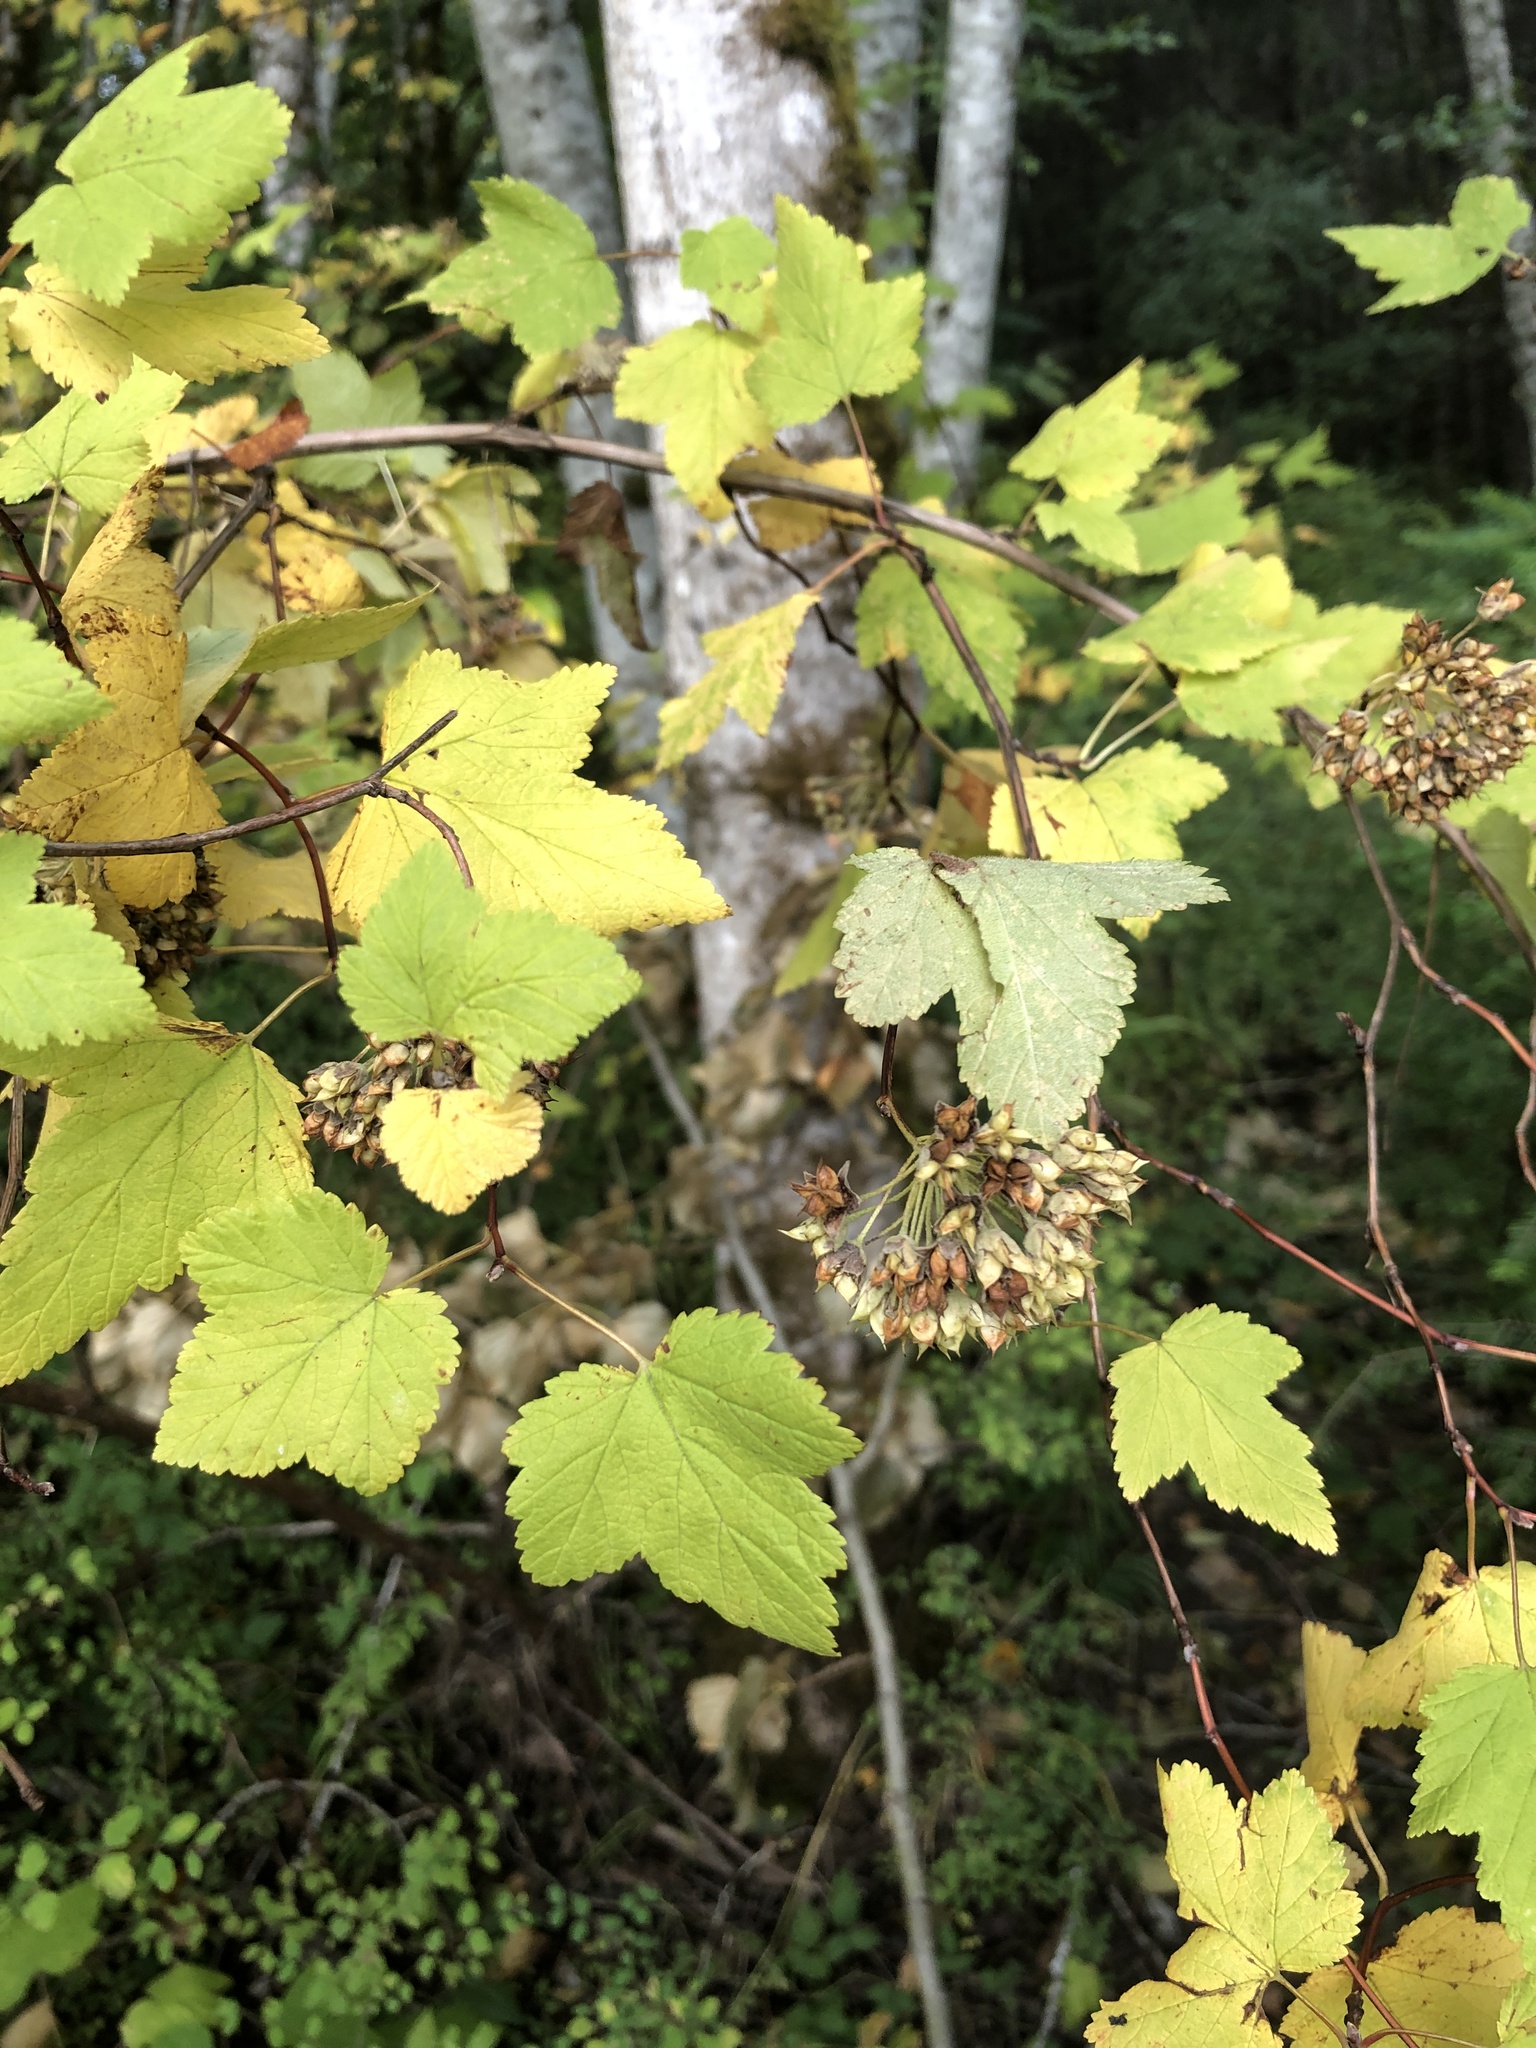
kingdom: Plantae
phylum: Tracheophyta
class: Magnoliopsida
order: Rosales
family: Rosaceae
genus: Physocarpus
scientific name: Physocarpus capitatus
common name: Pacific ninebark
